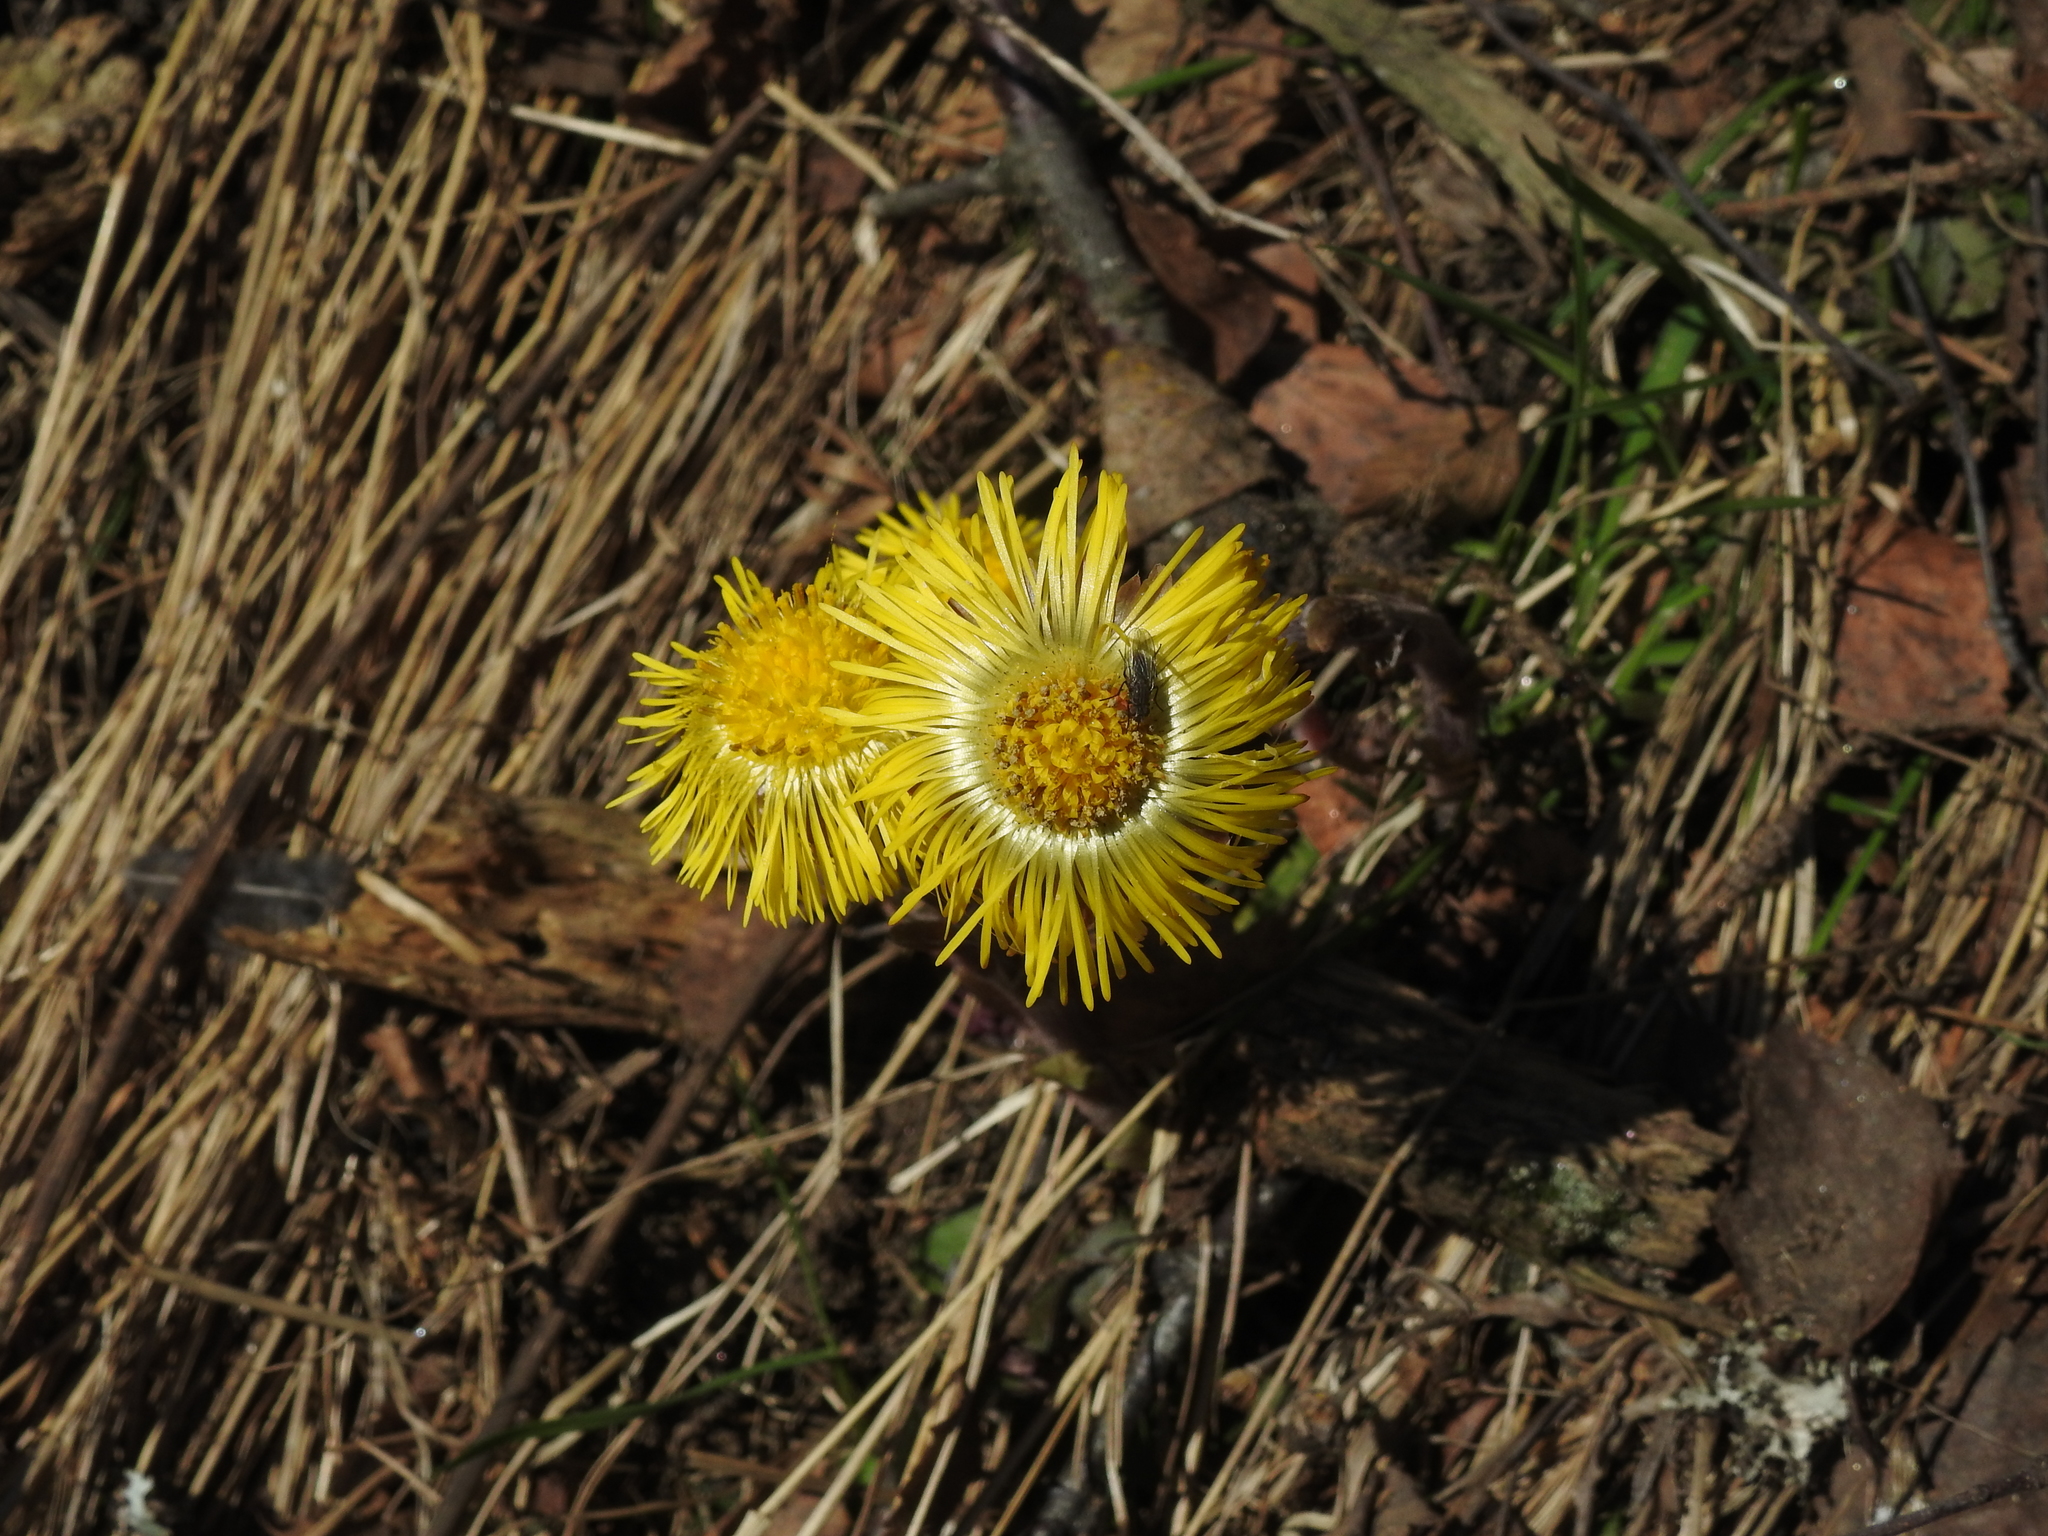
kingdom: Plantae
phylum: Tracheophyta
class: Magnoliopsida
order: Asterales
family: Asteraceae
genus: Tussilago
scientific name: Tussilago farfara
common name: Coltsfoot
